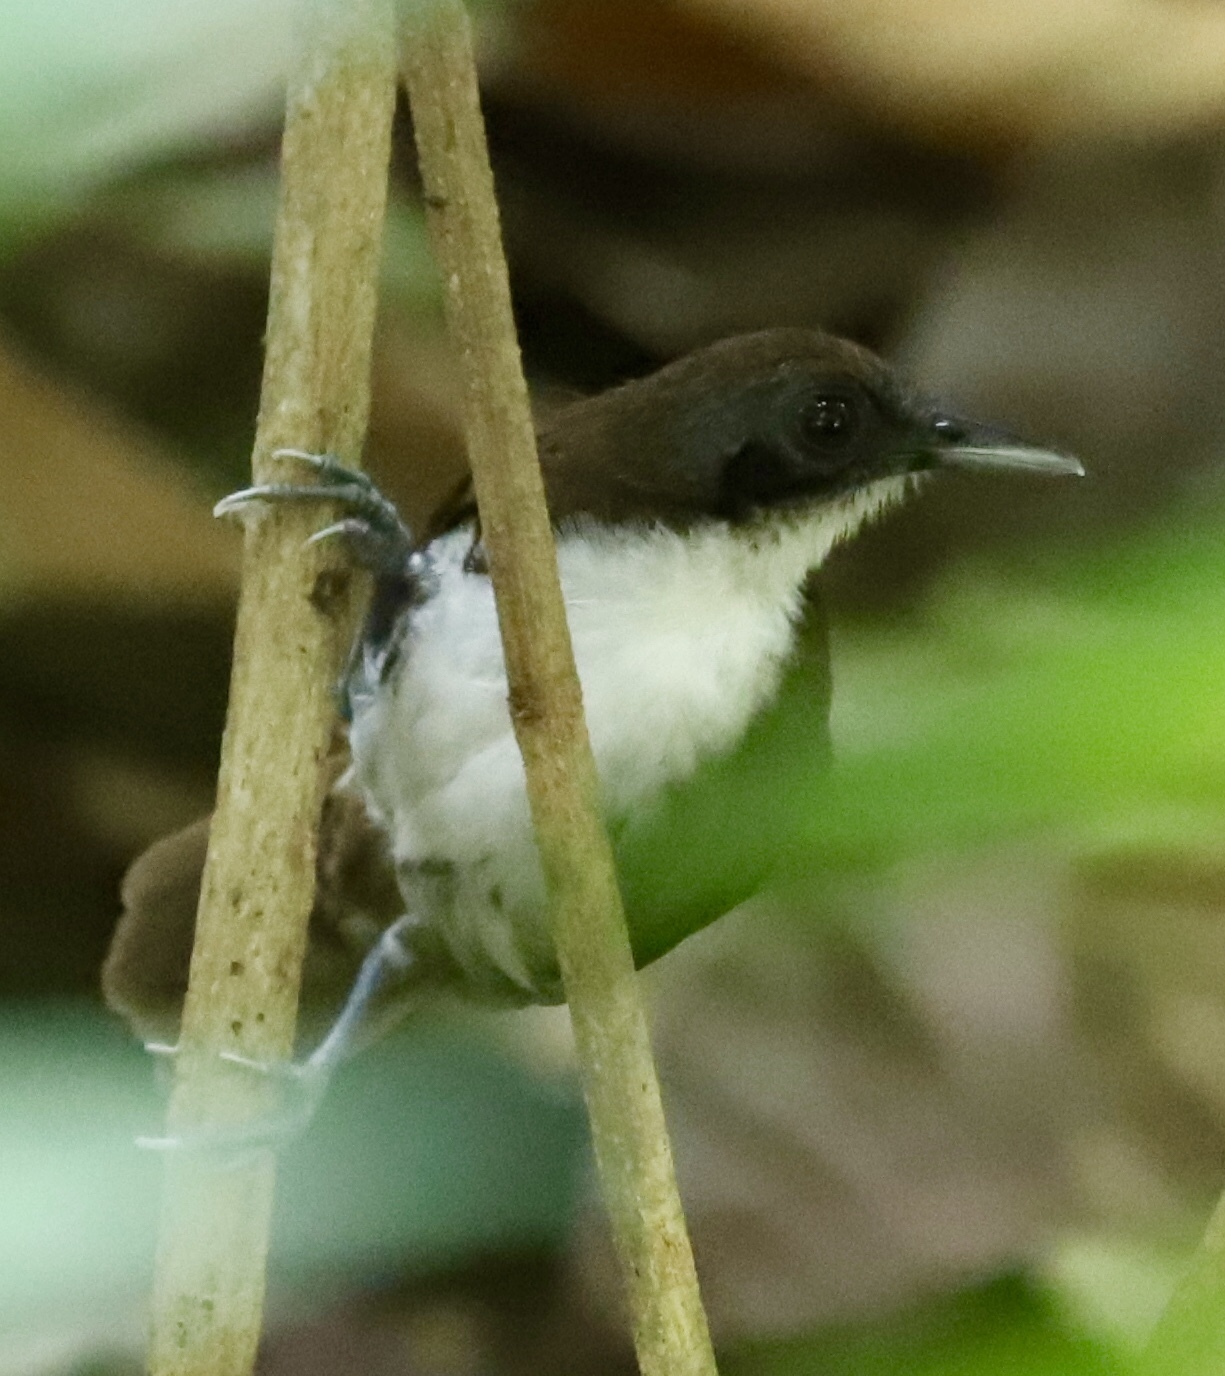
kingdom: Animalia
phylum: Chordata
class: Aves
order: Passeriformes
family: Thamnophilidae
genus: Gymnopithys
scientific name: Gymnopithys leucaspis
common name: White-cheeked antbird
